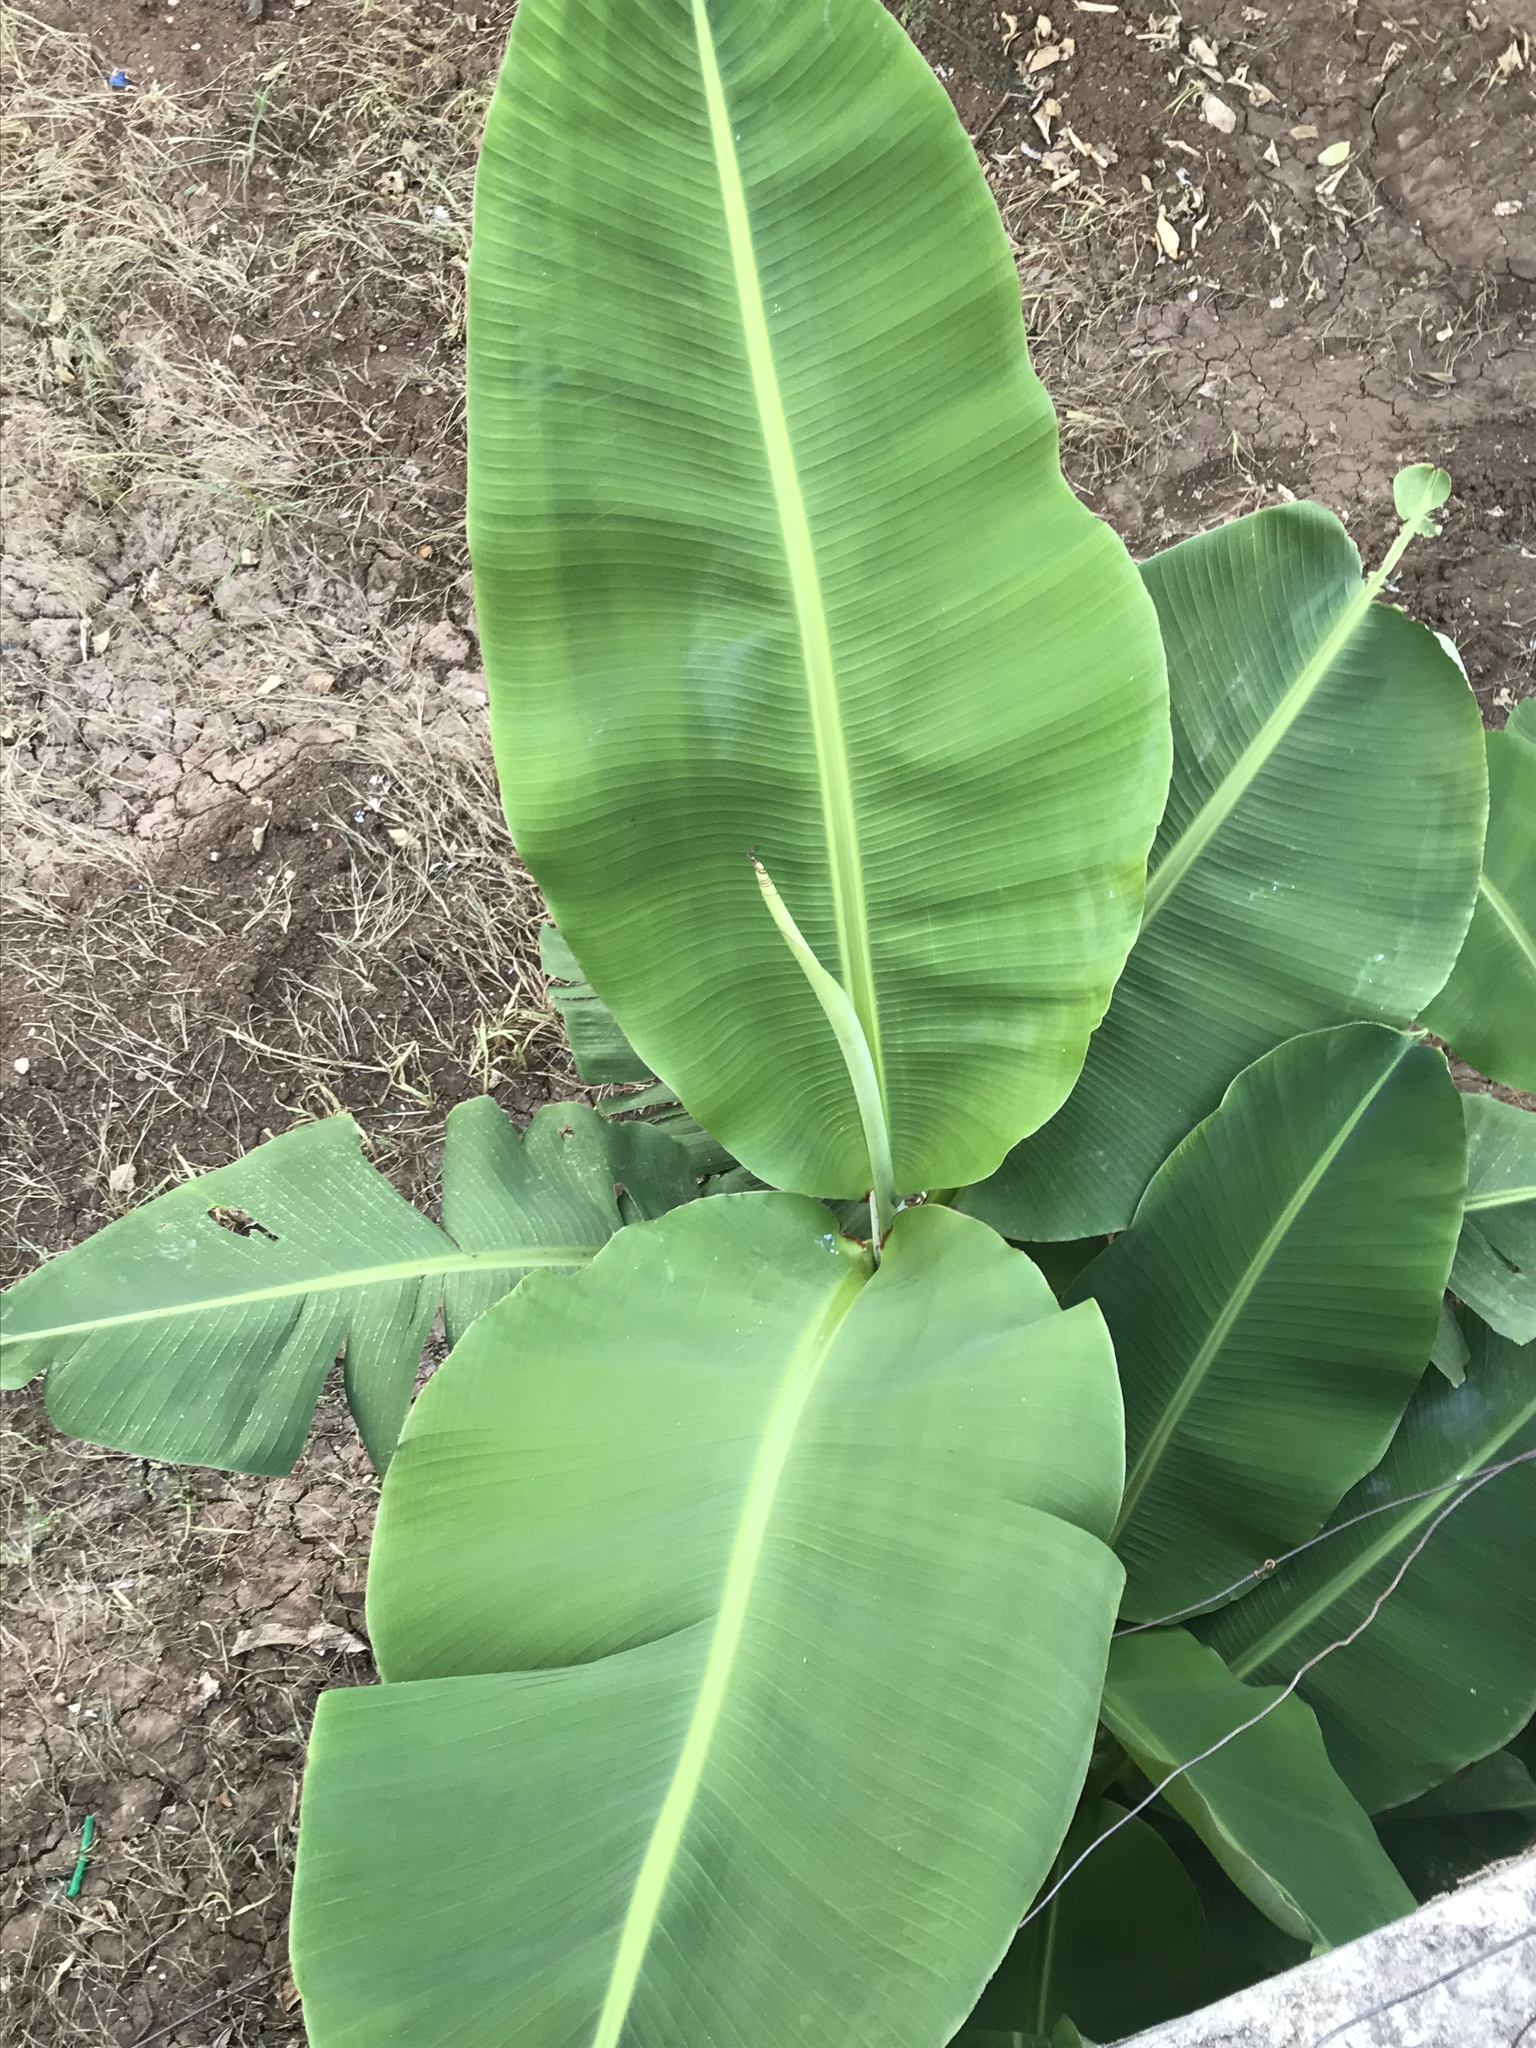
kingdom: Plantae
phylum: Tracheophyta
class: Liliopsida
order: Zingiberales
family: Musaceae
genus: Musa
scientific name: Musa acuminata
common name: Edible banana
